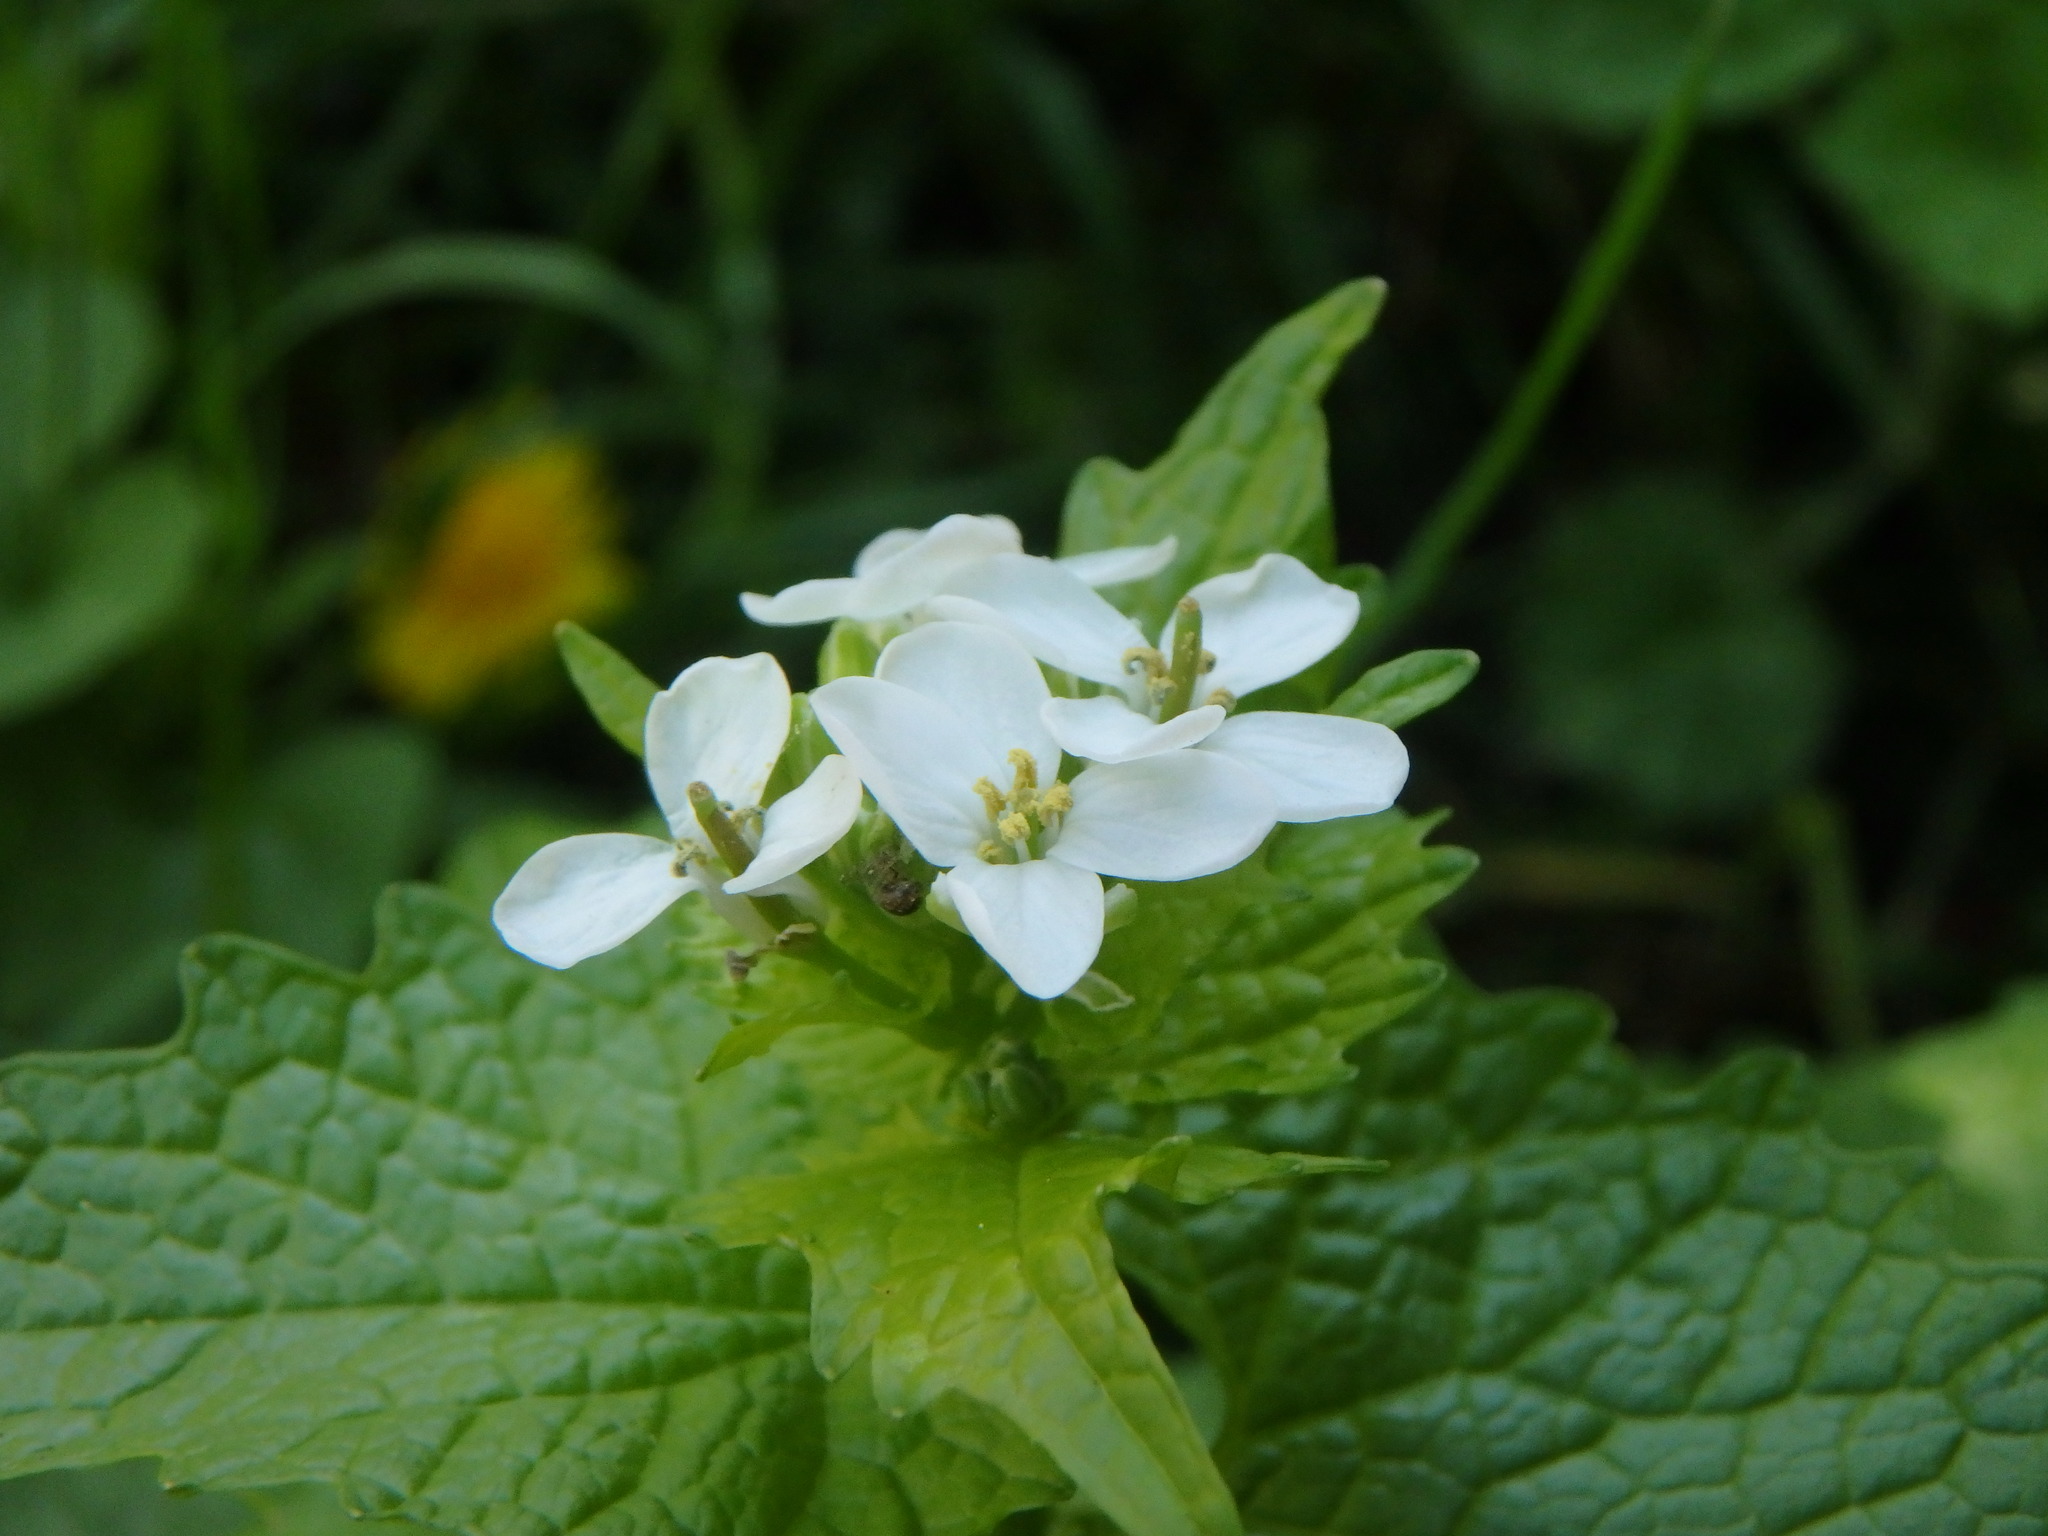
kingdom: Plantae
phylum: Tracheophyta
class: Magnoliopsida
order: Brassicales
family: Brassicaceae
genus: Alliaria
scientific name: Alliaria petiolata
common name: Garlic mustard
